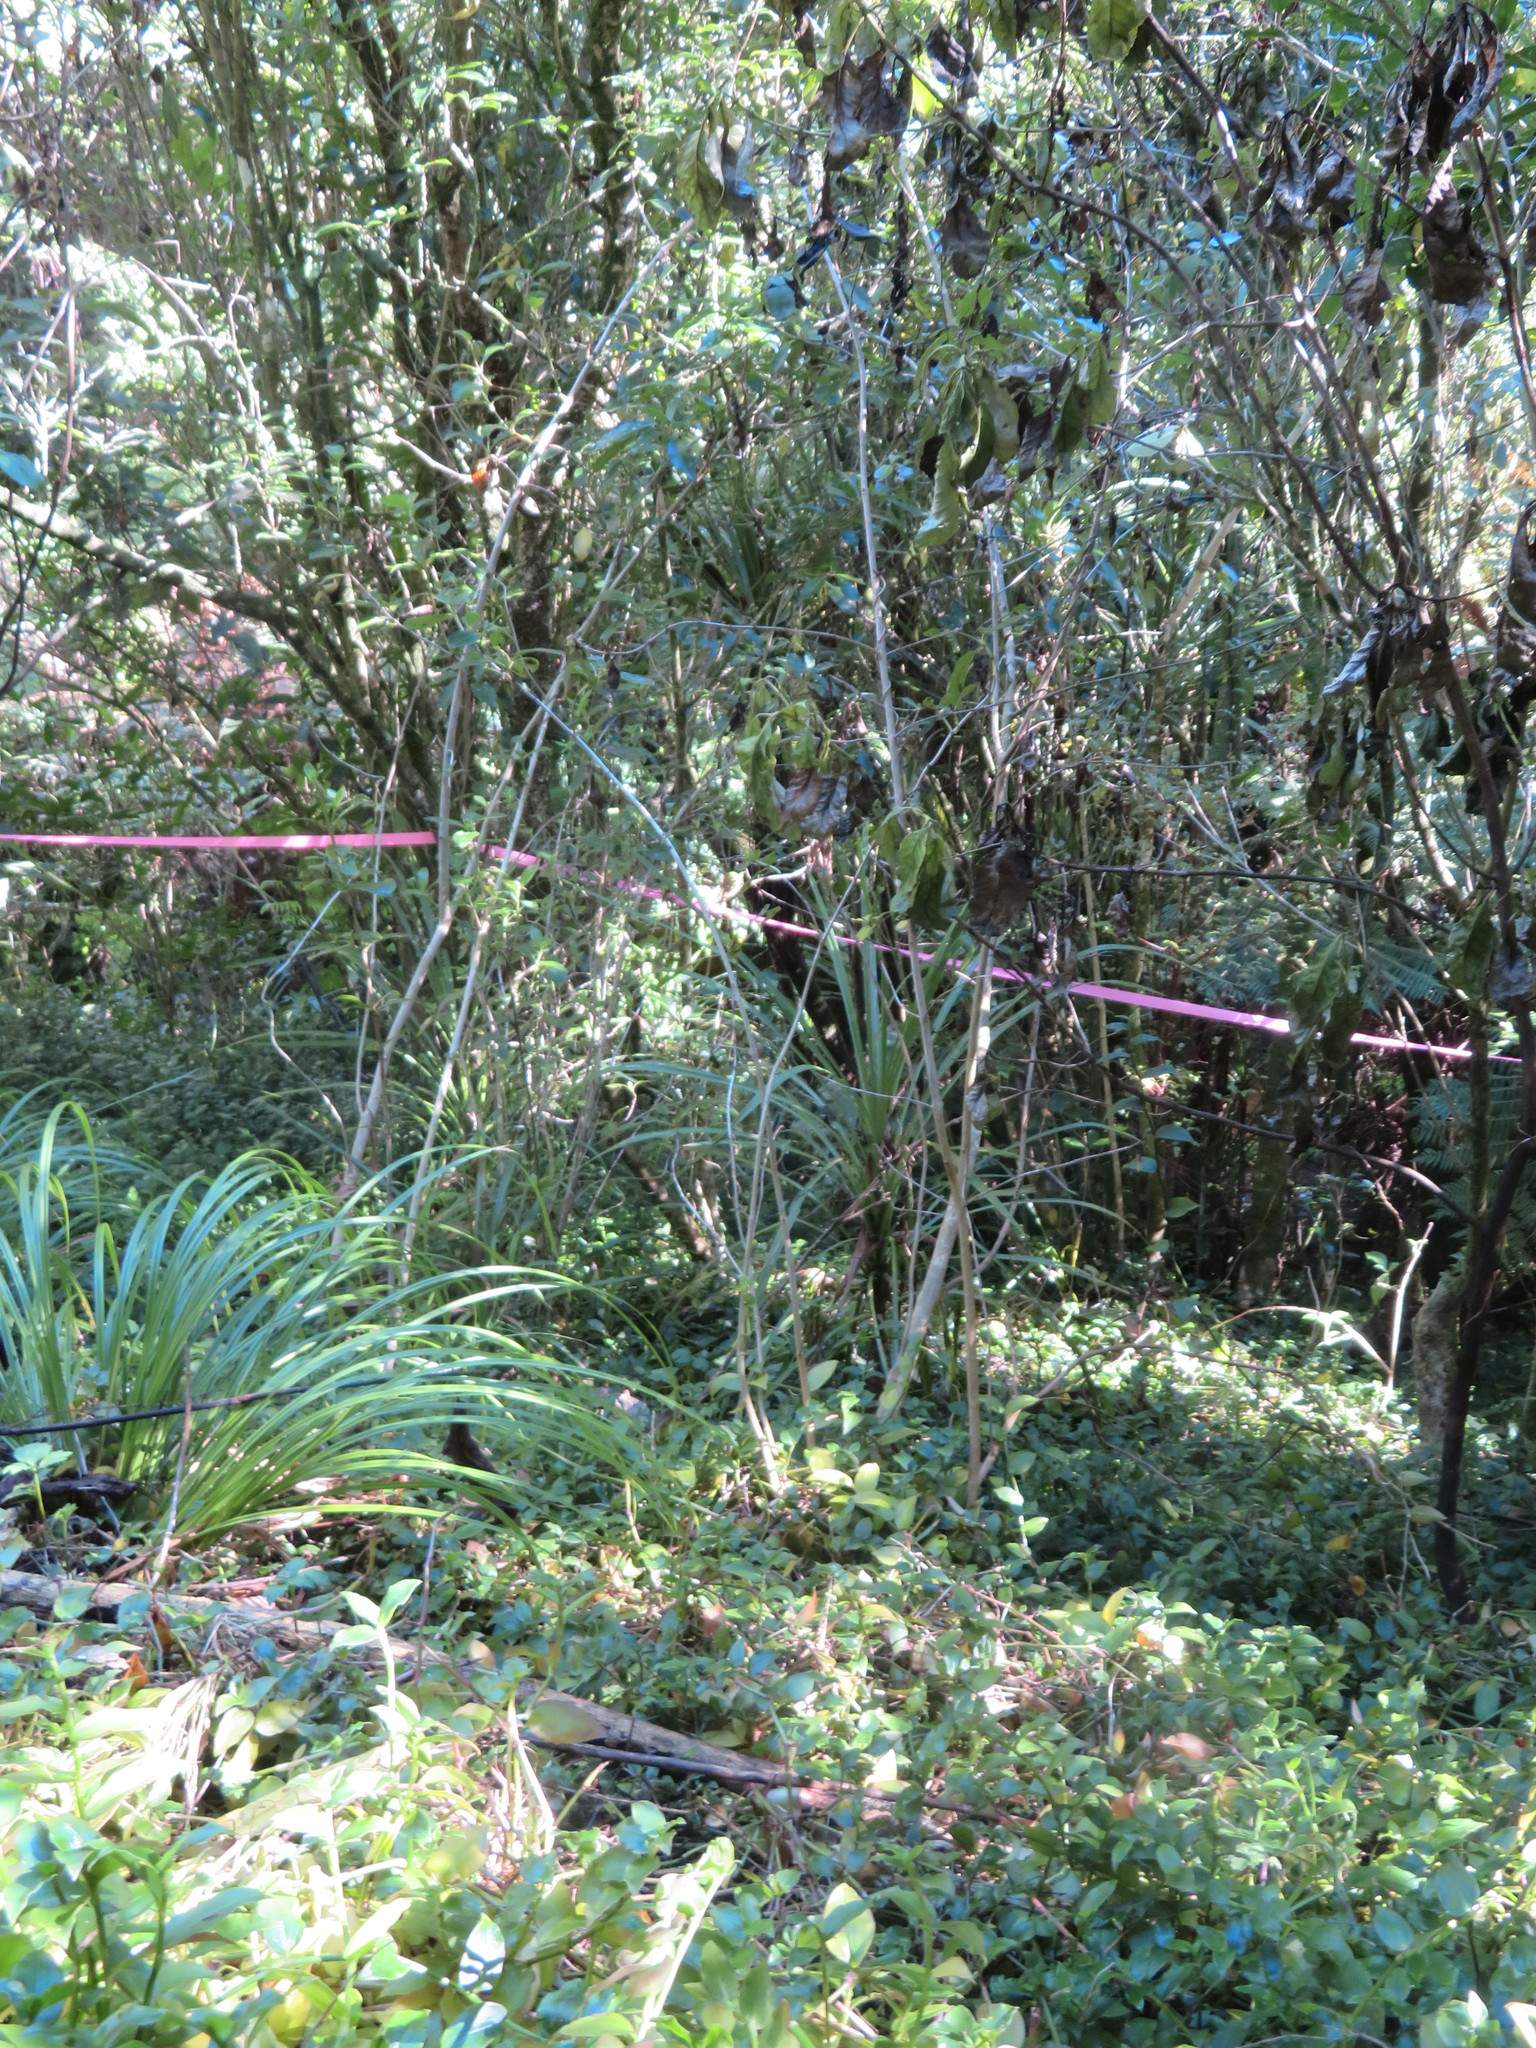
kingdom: Plantae
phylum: Tracheophyta
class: Liliopsida
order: Asparagales
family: Asparagaceae
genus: Cordyline
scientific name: Cordyline australis
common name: Cabbage-palm
